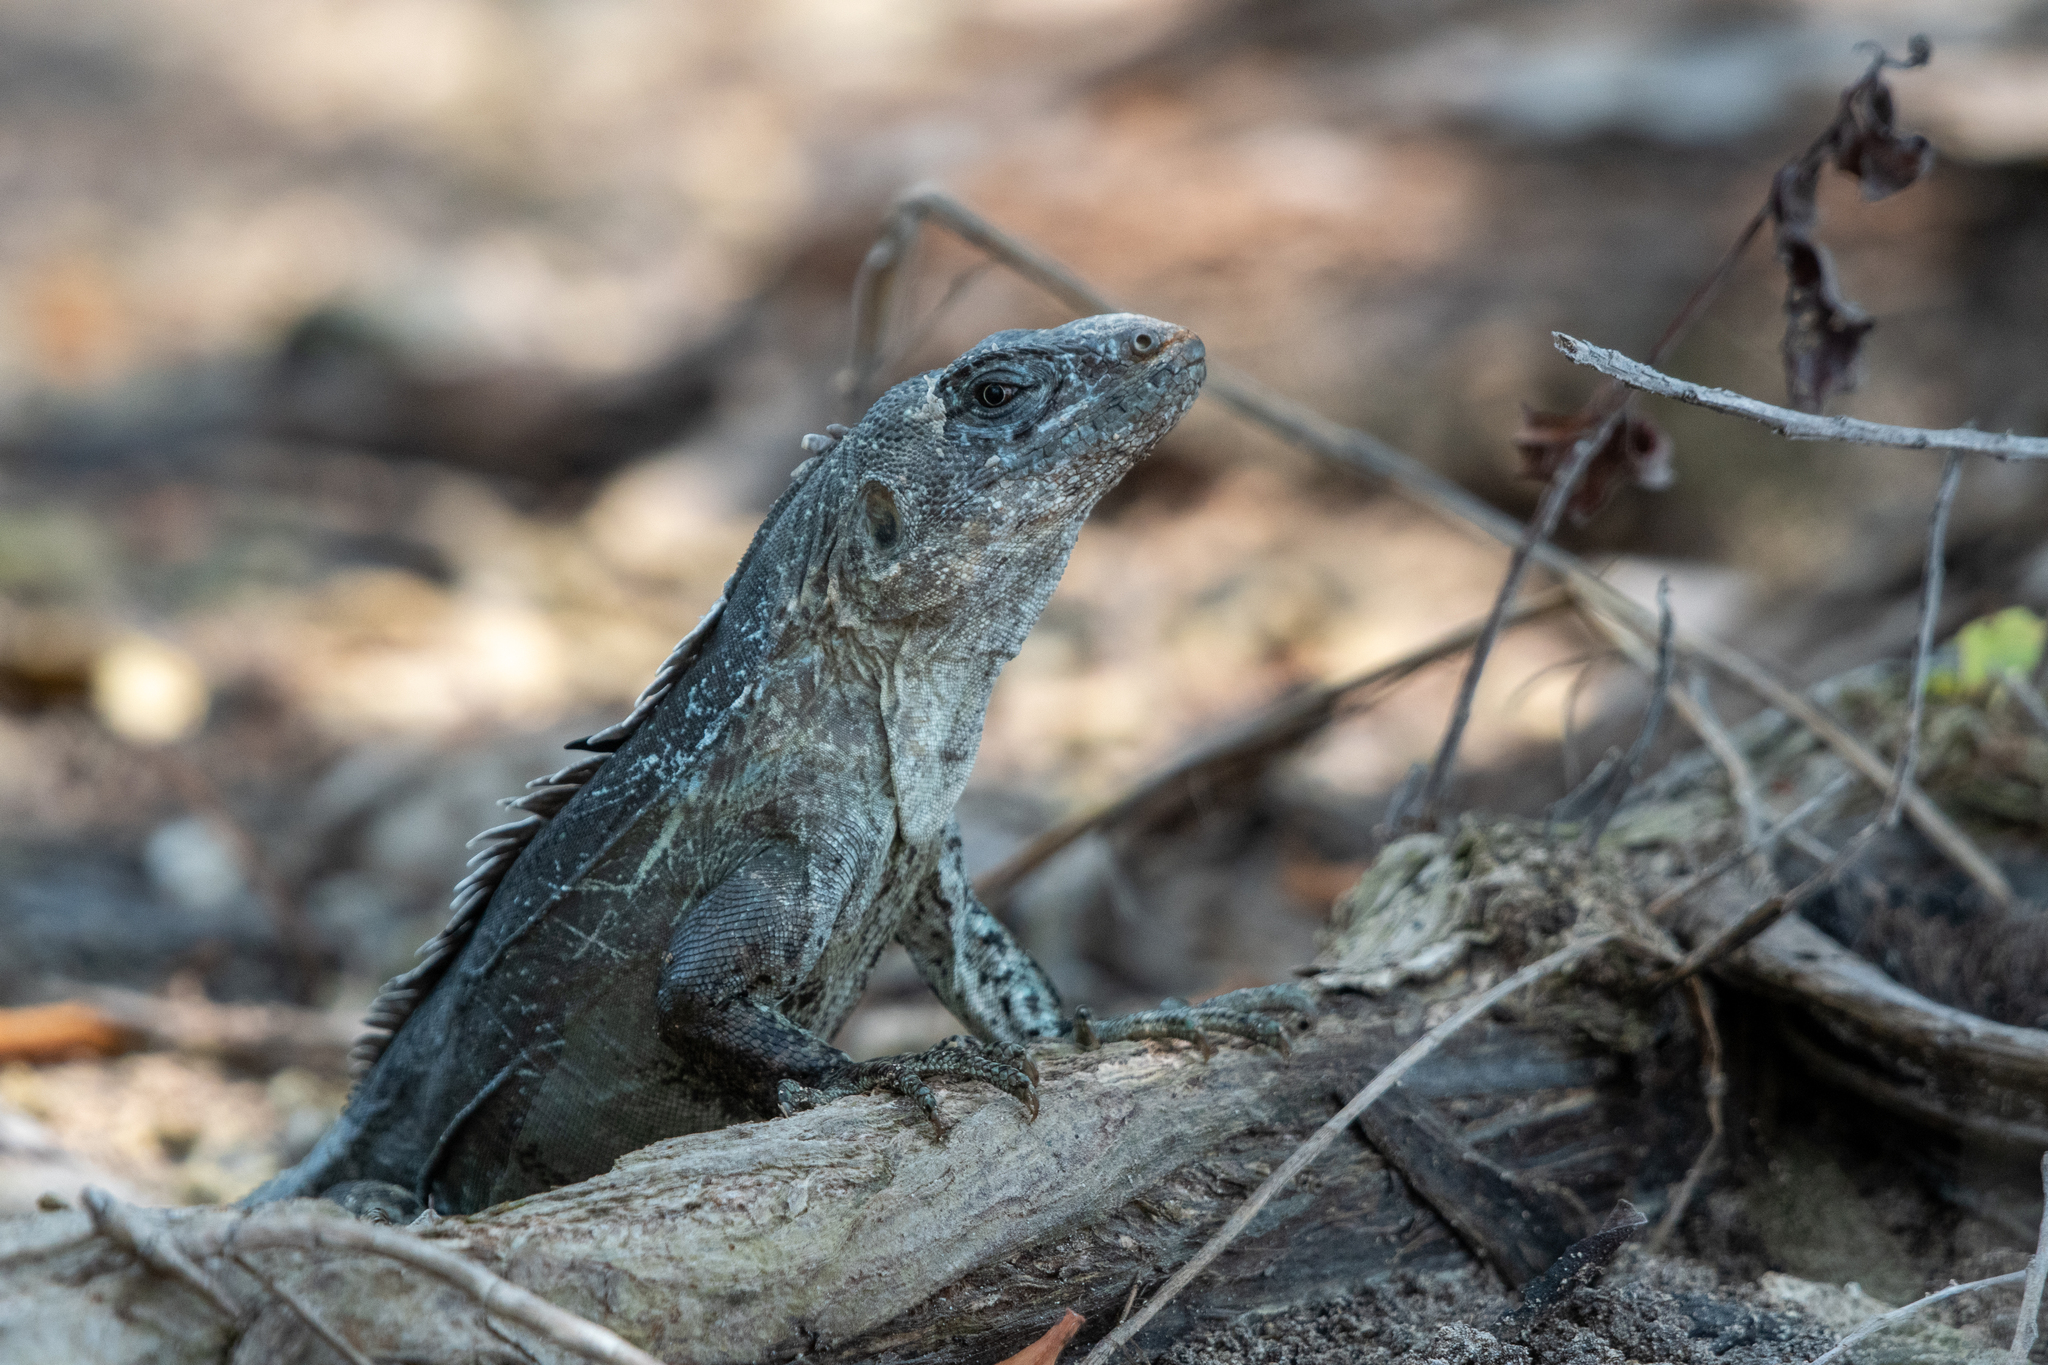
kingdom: Animalia
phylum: Chordata
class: Squamata
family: Iguanidae
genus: Ctenosaura
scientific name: Ctenosaura bakeri
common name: Utila spiny-tailed iguana
